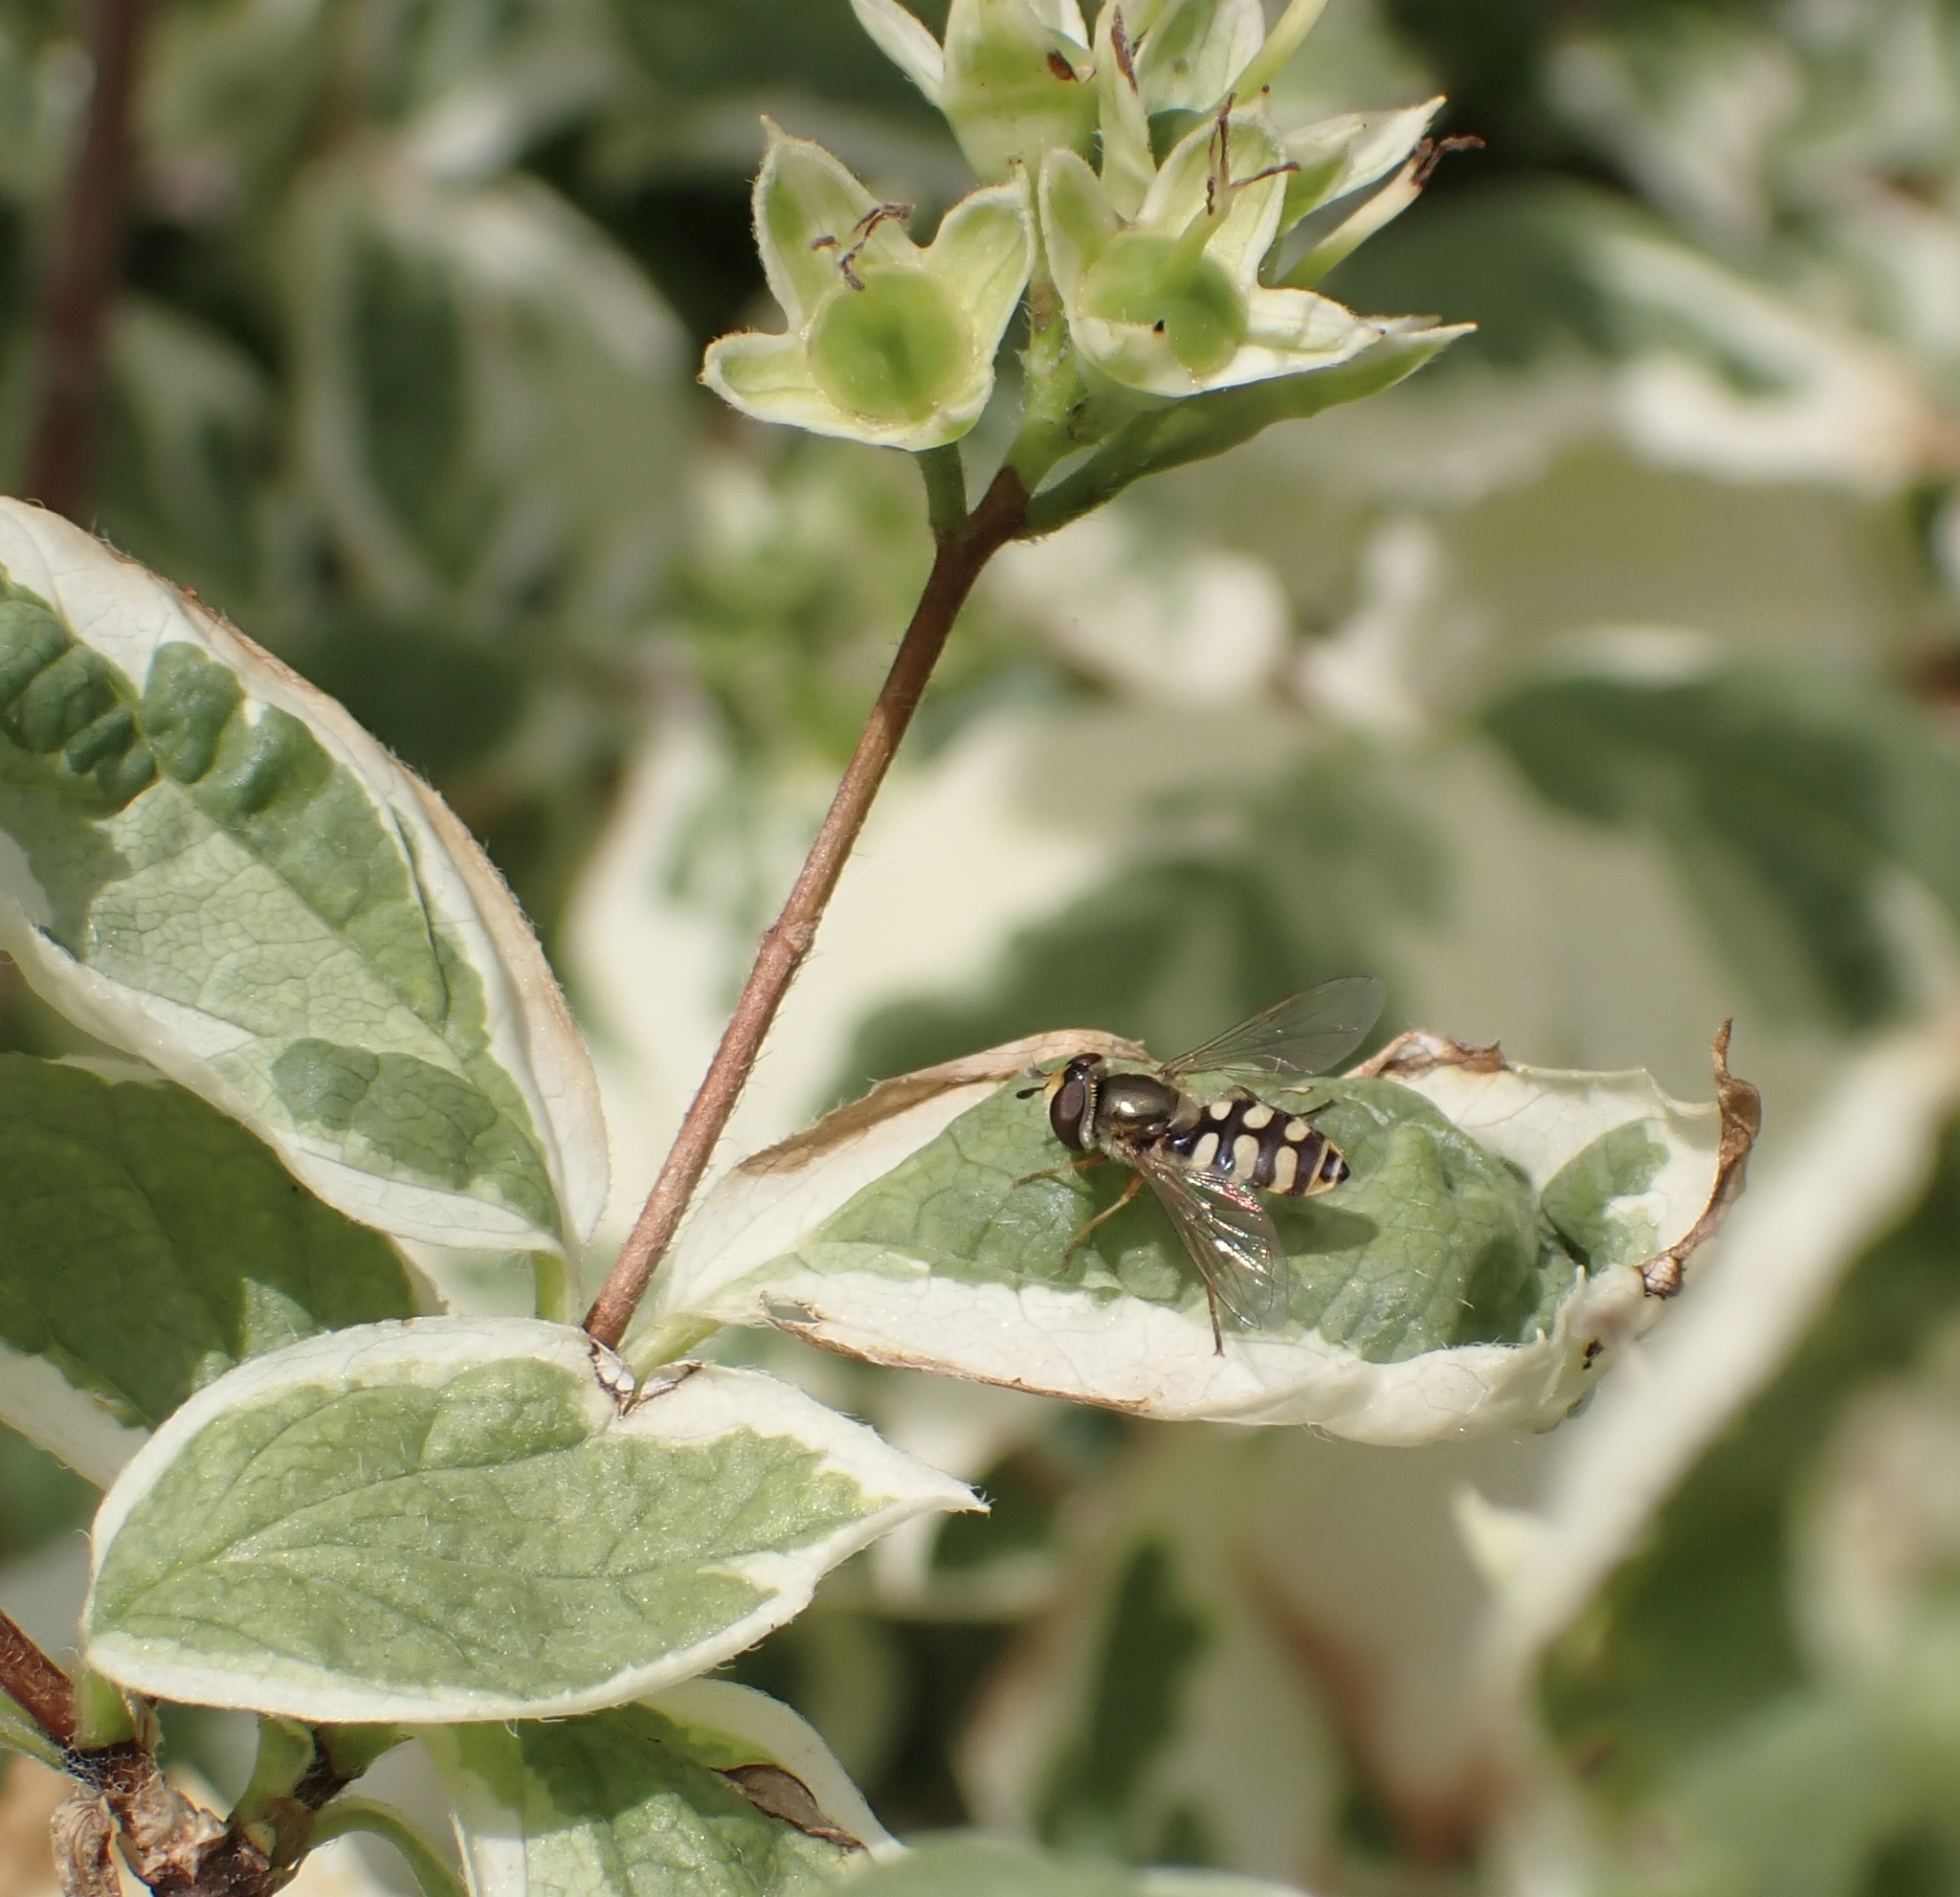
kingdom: Animalia
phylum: Arthropoda
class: Insecta
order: Diptera
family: Syrphidae
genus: Eupeodes
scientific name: Eupeodes corollae
